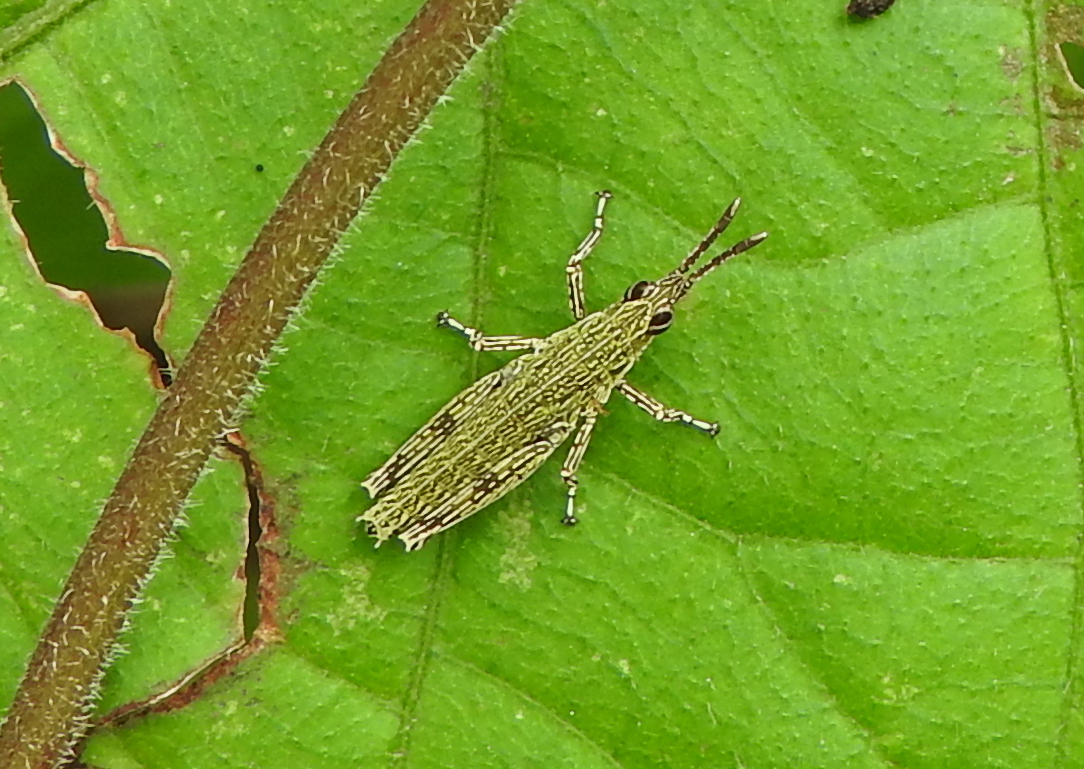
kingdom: Animalia
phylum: Arthropoda
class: Insecta
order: Orthoptera
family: Pyrgomorphidae
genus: Tagasta
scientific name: Tagasta marginella
